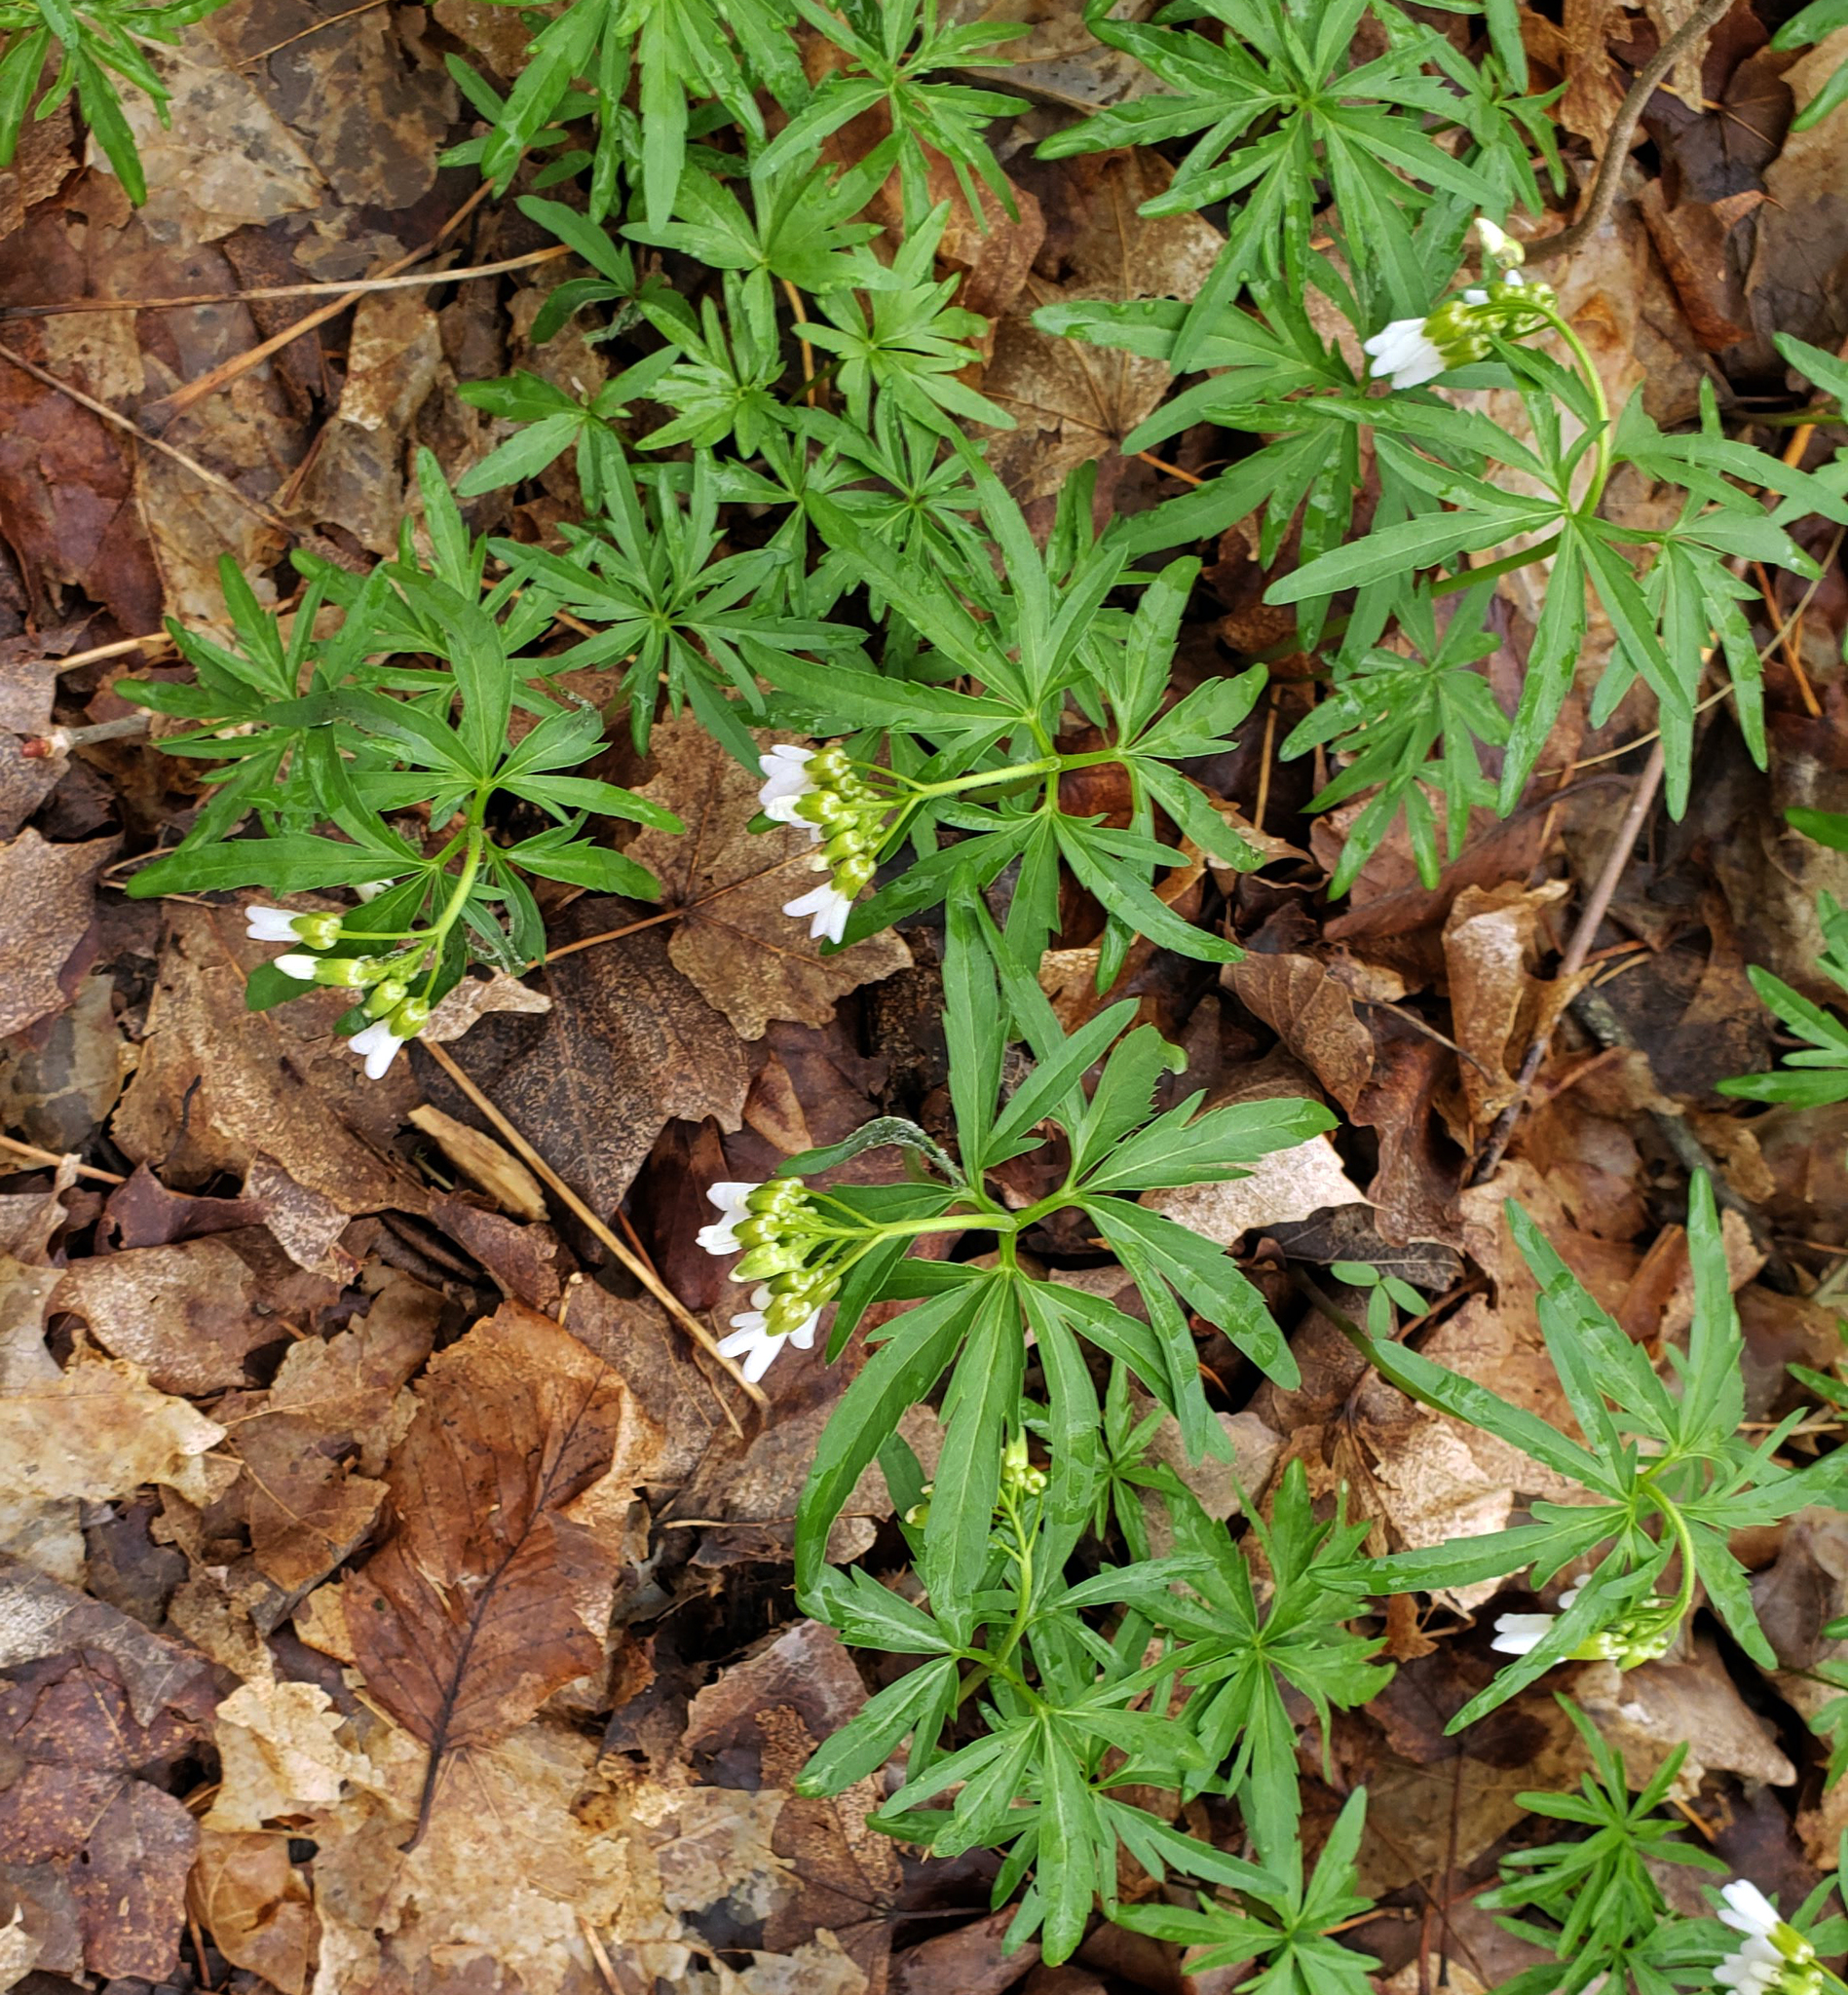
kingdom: Plantae
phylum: Tracheophyta
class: Magnoliopsida
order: Brassicales
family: Brassicaceae
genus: Cardamine
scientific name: Cardamine concatenata
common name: Cut-leaf toothcup
